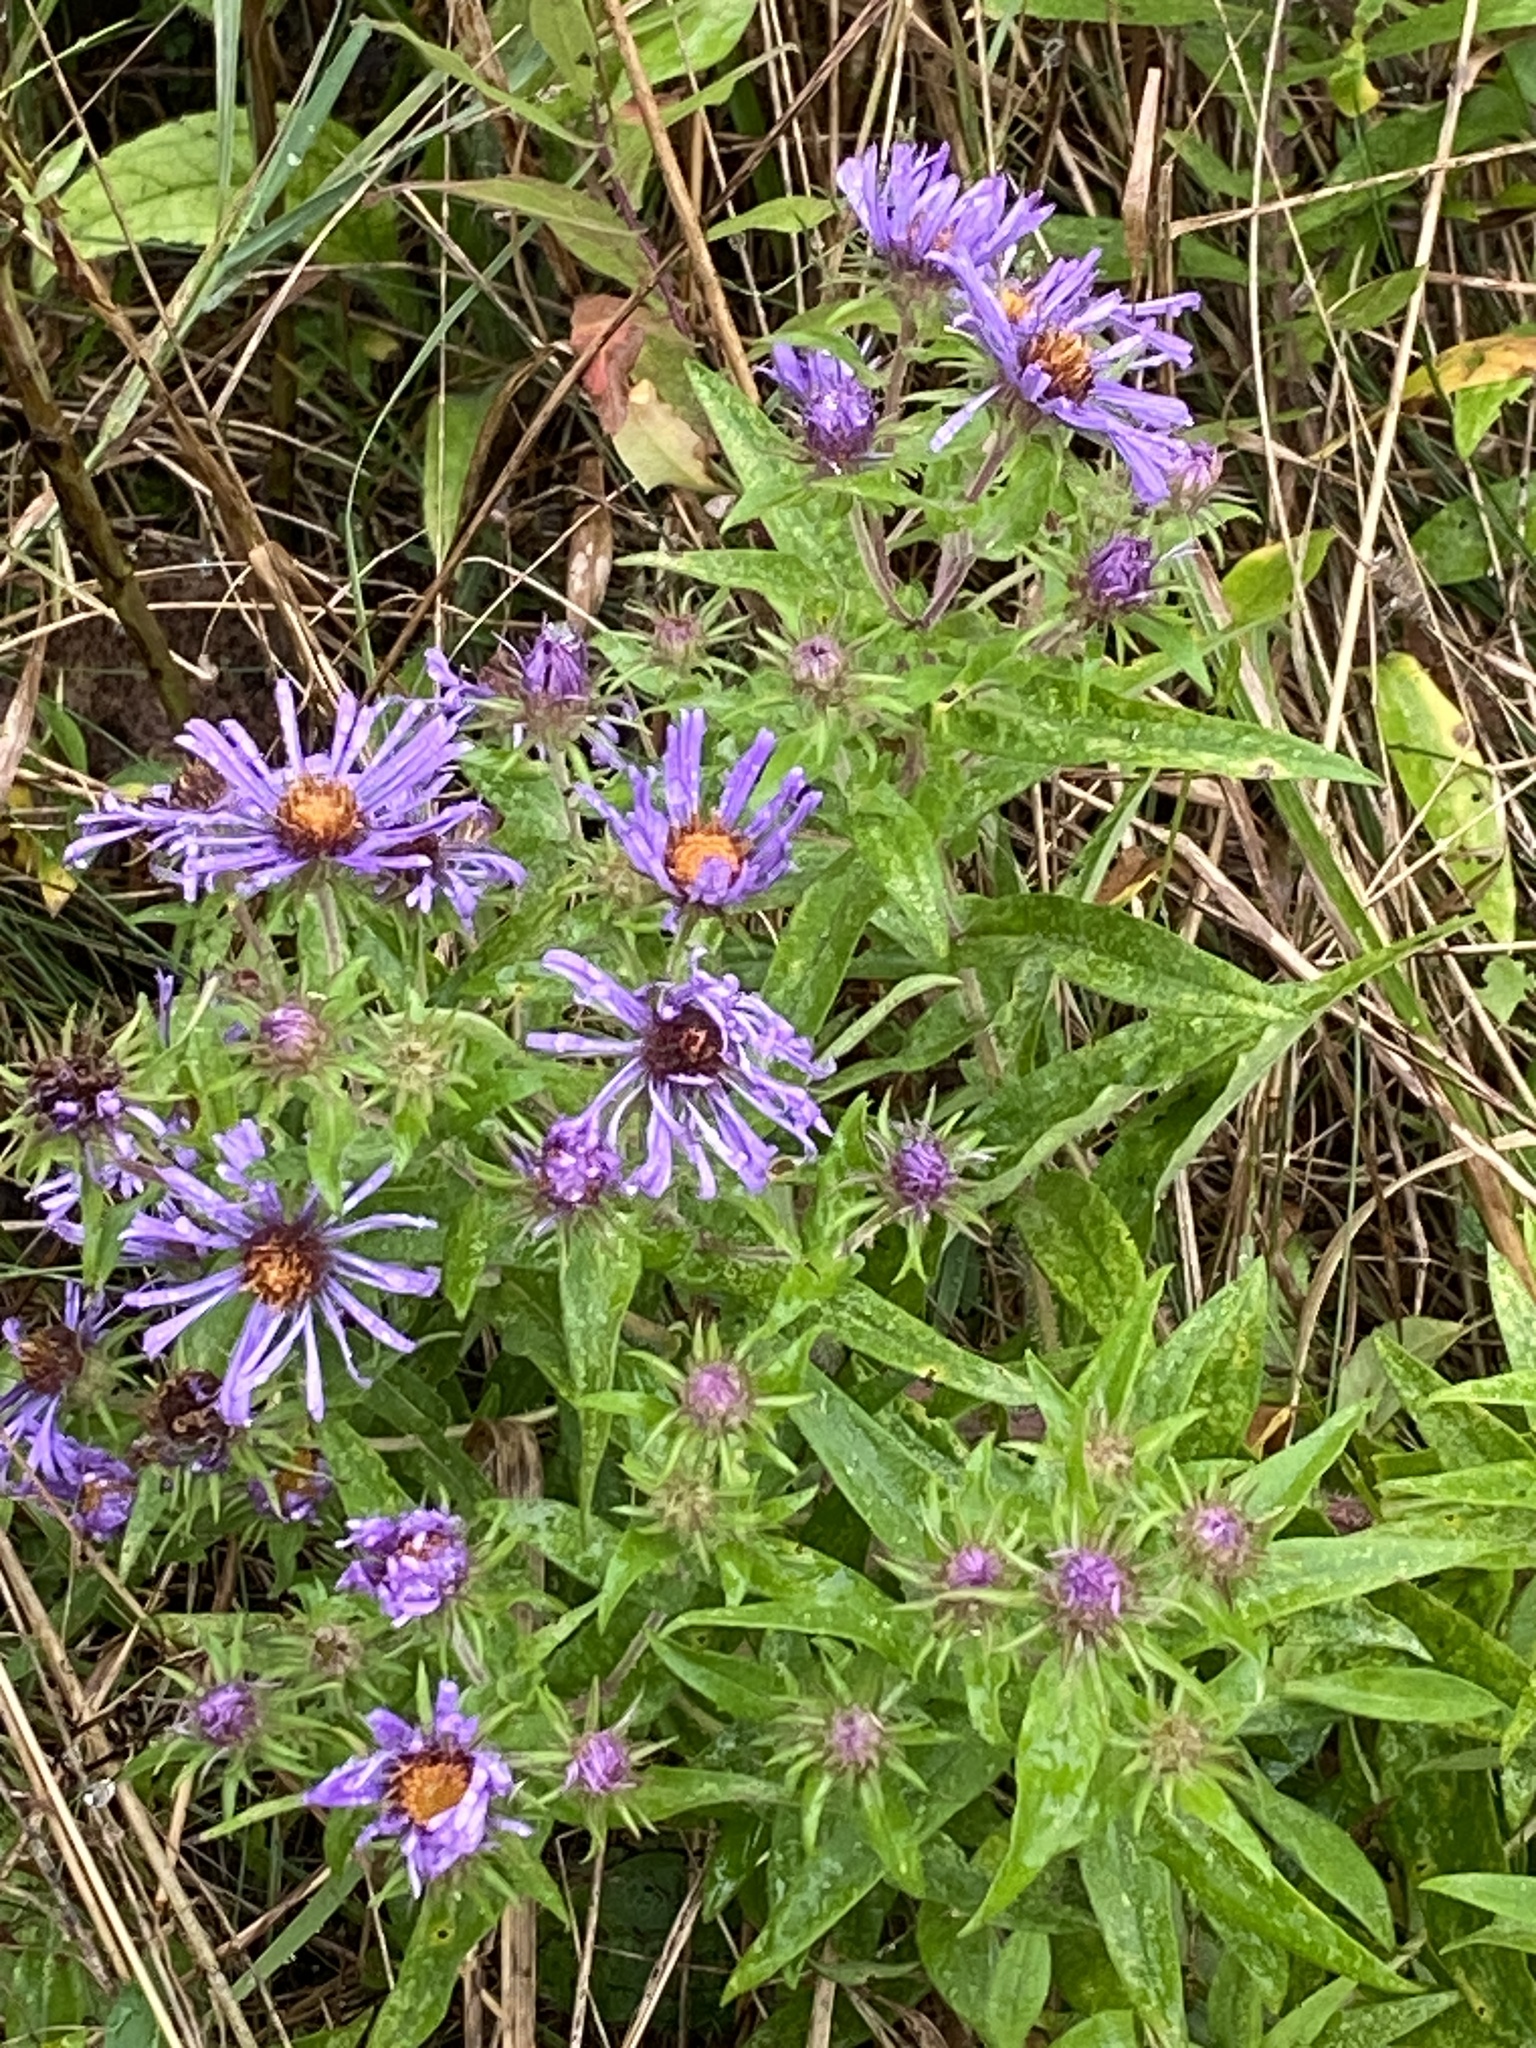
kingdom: Plantae
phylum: Tracheophyta
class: Magnoliopsida
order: Asterales
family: Asteraceae
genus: Symphyotrichum
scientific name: Symphyotrichum novae-angliae
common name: Michaelmas daisy
